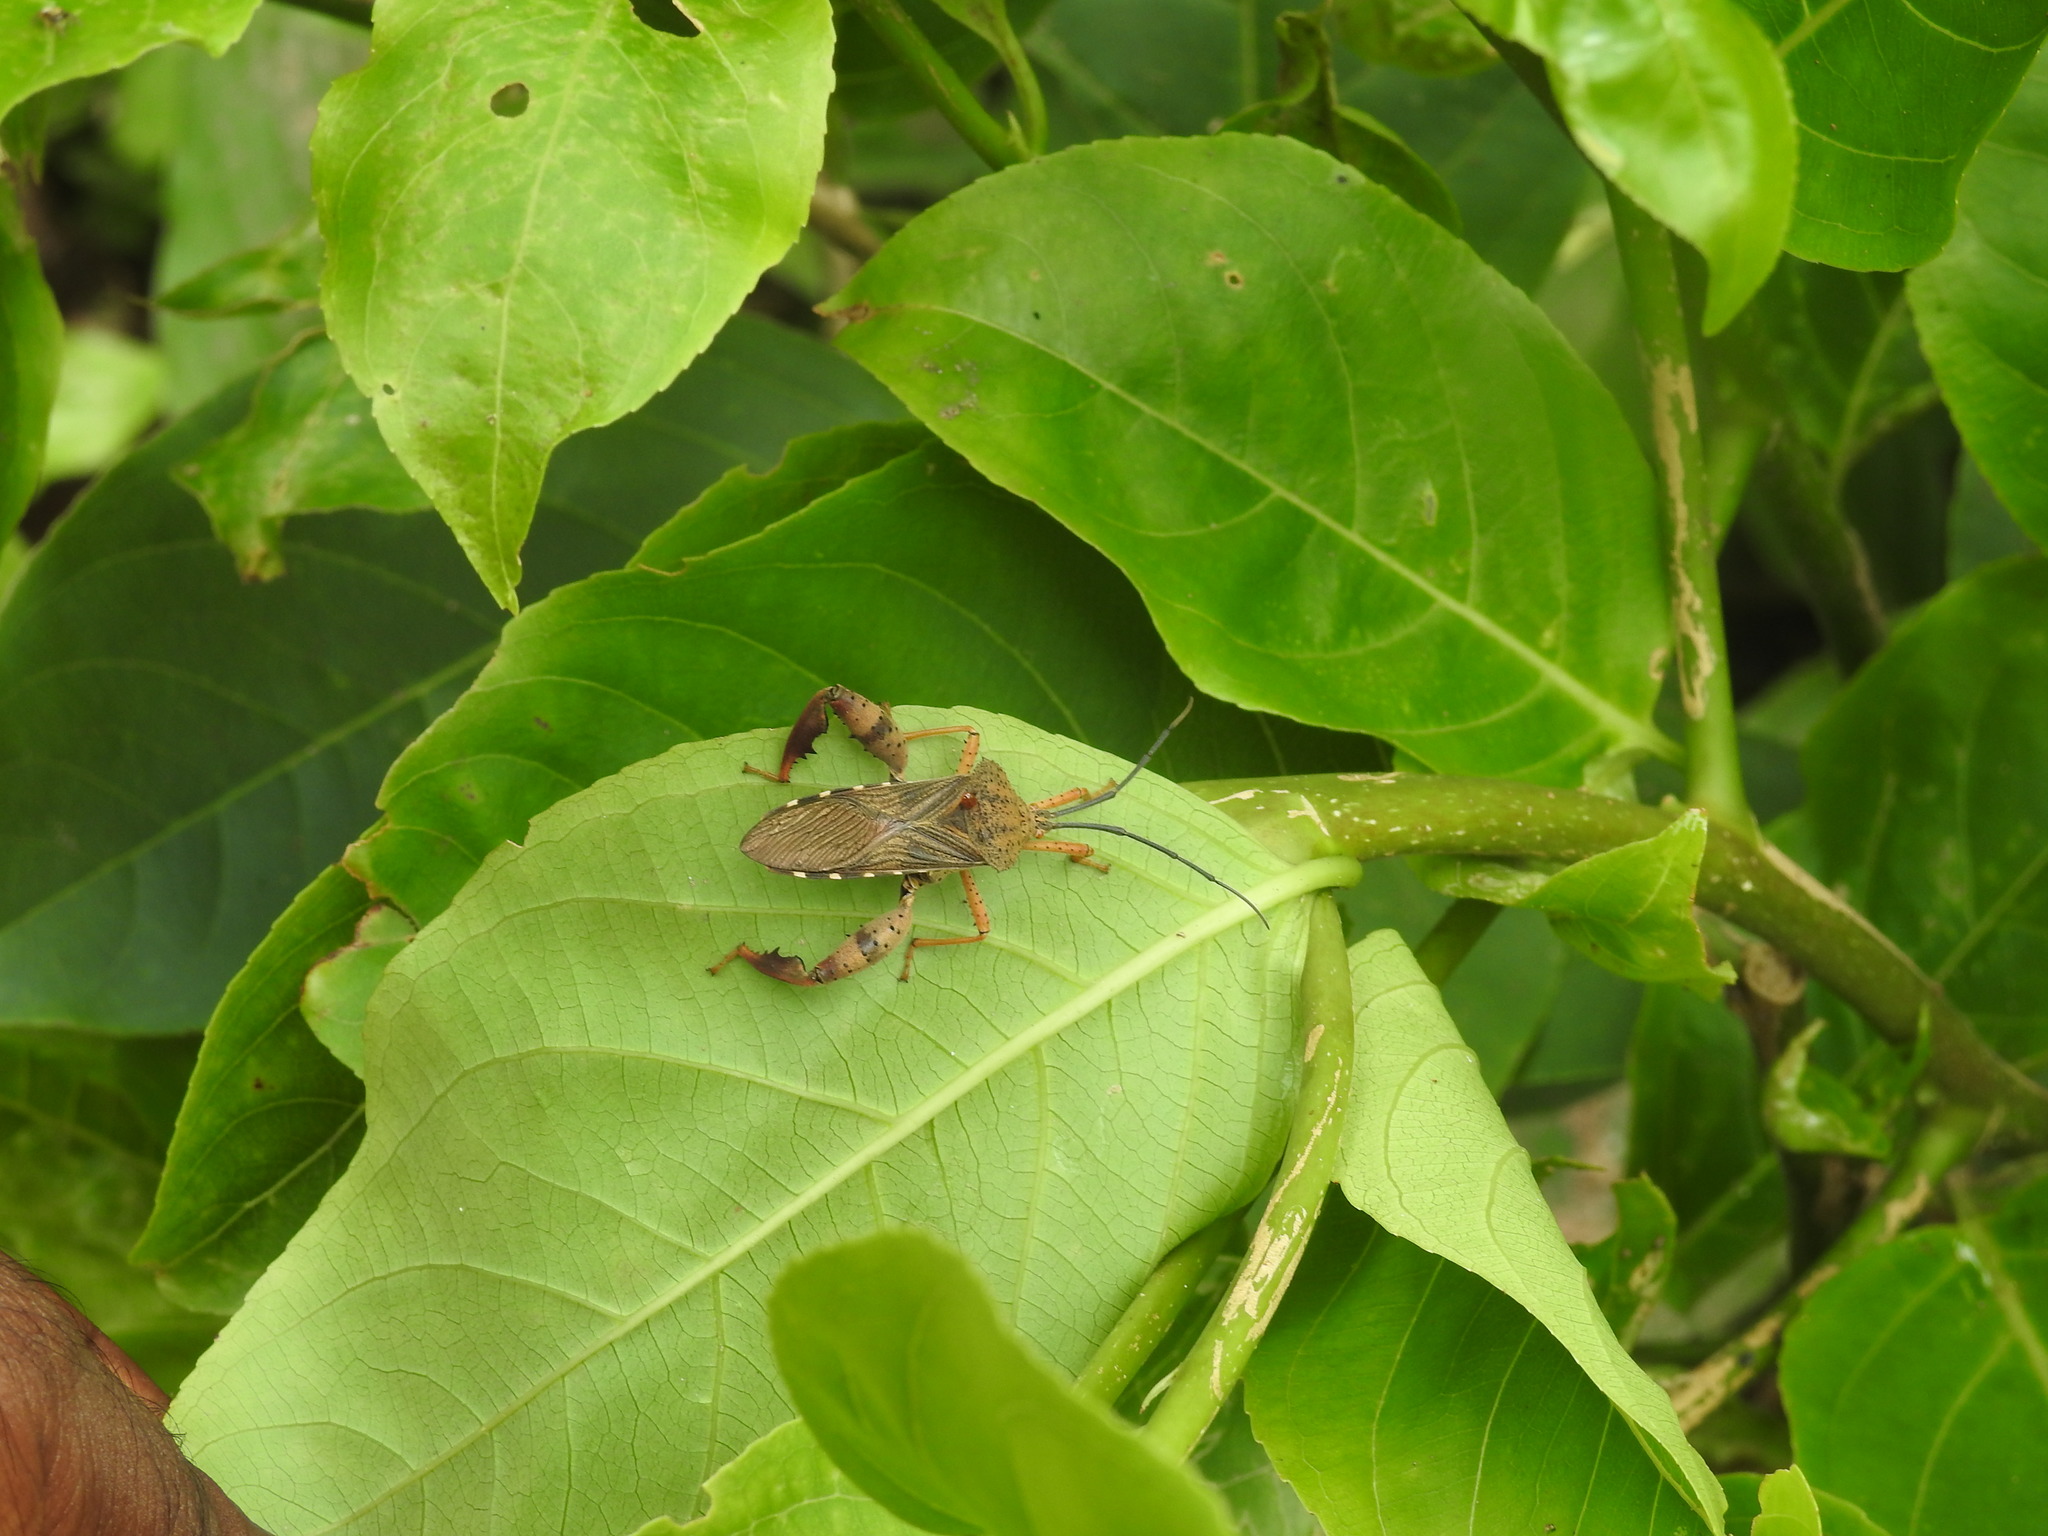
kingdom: Animalia
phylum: Arthropoda
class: Insecta
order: Hemiptera
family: Coreidae
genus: Petillopsis
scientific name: Petillopsis calcar
